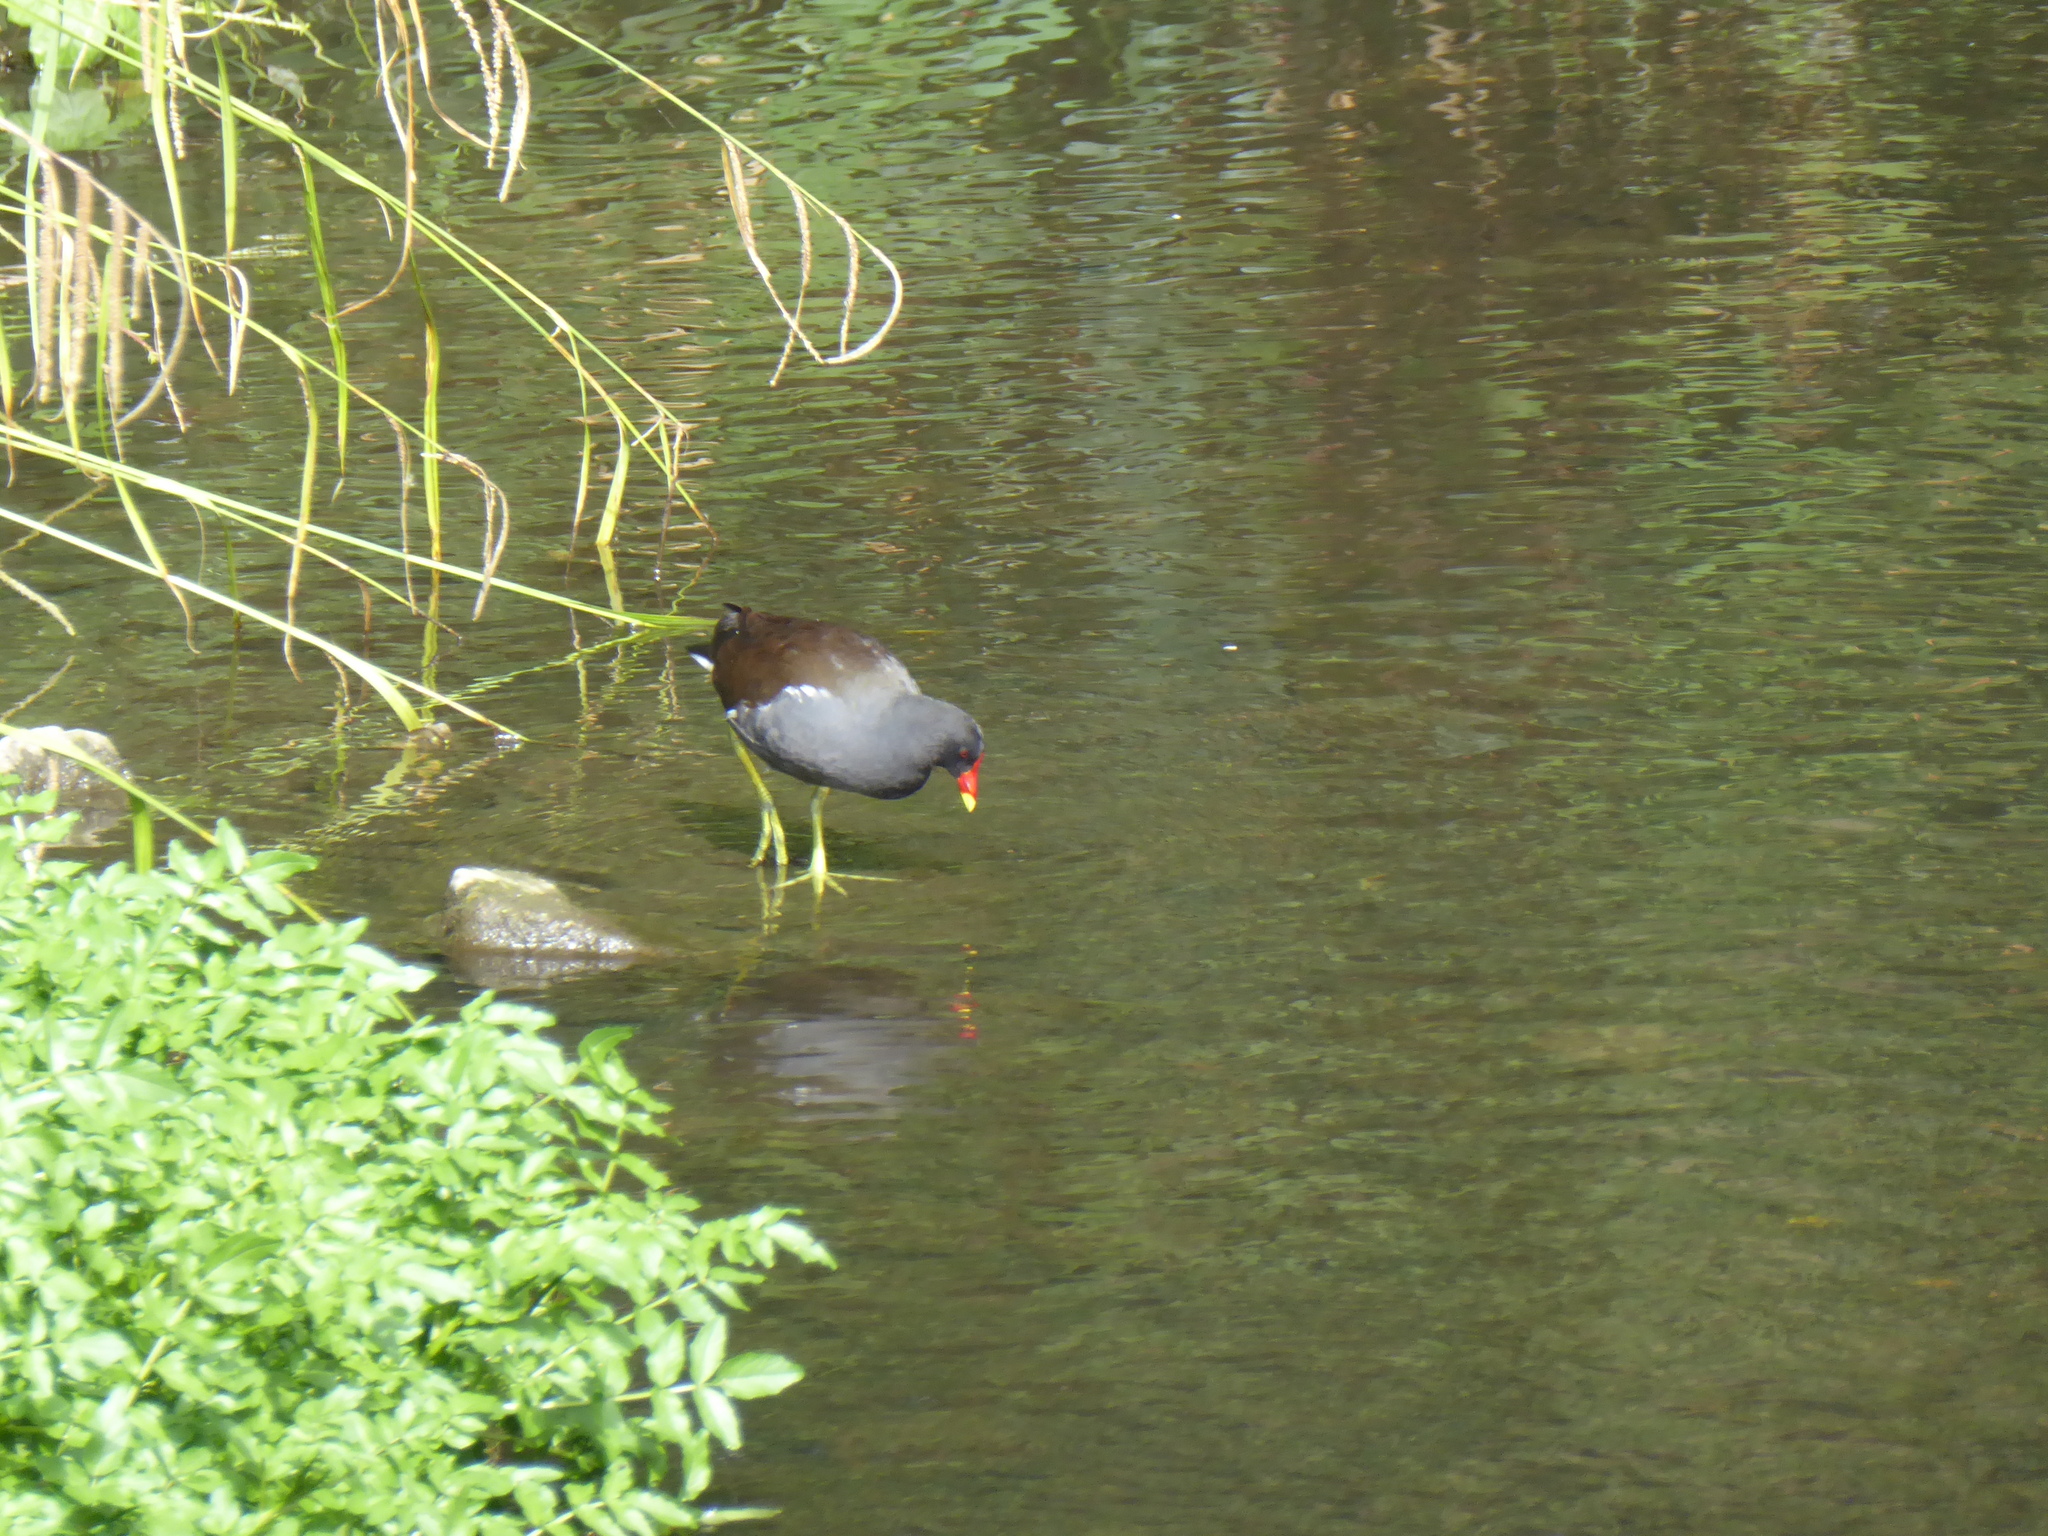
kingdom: Animalia
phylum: Chordata
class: Aves
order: Gruiformes
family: Rallidae
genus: Gallinula
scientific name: Gallinula chloropus
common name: Common moorhen
